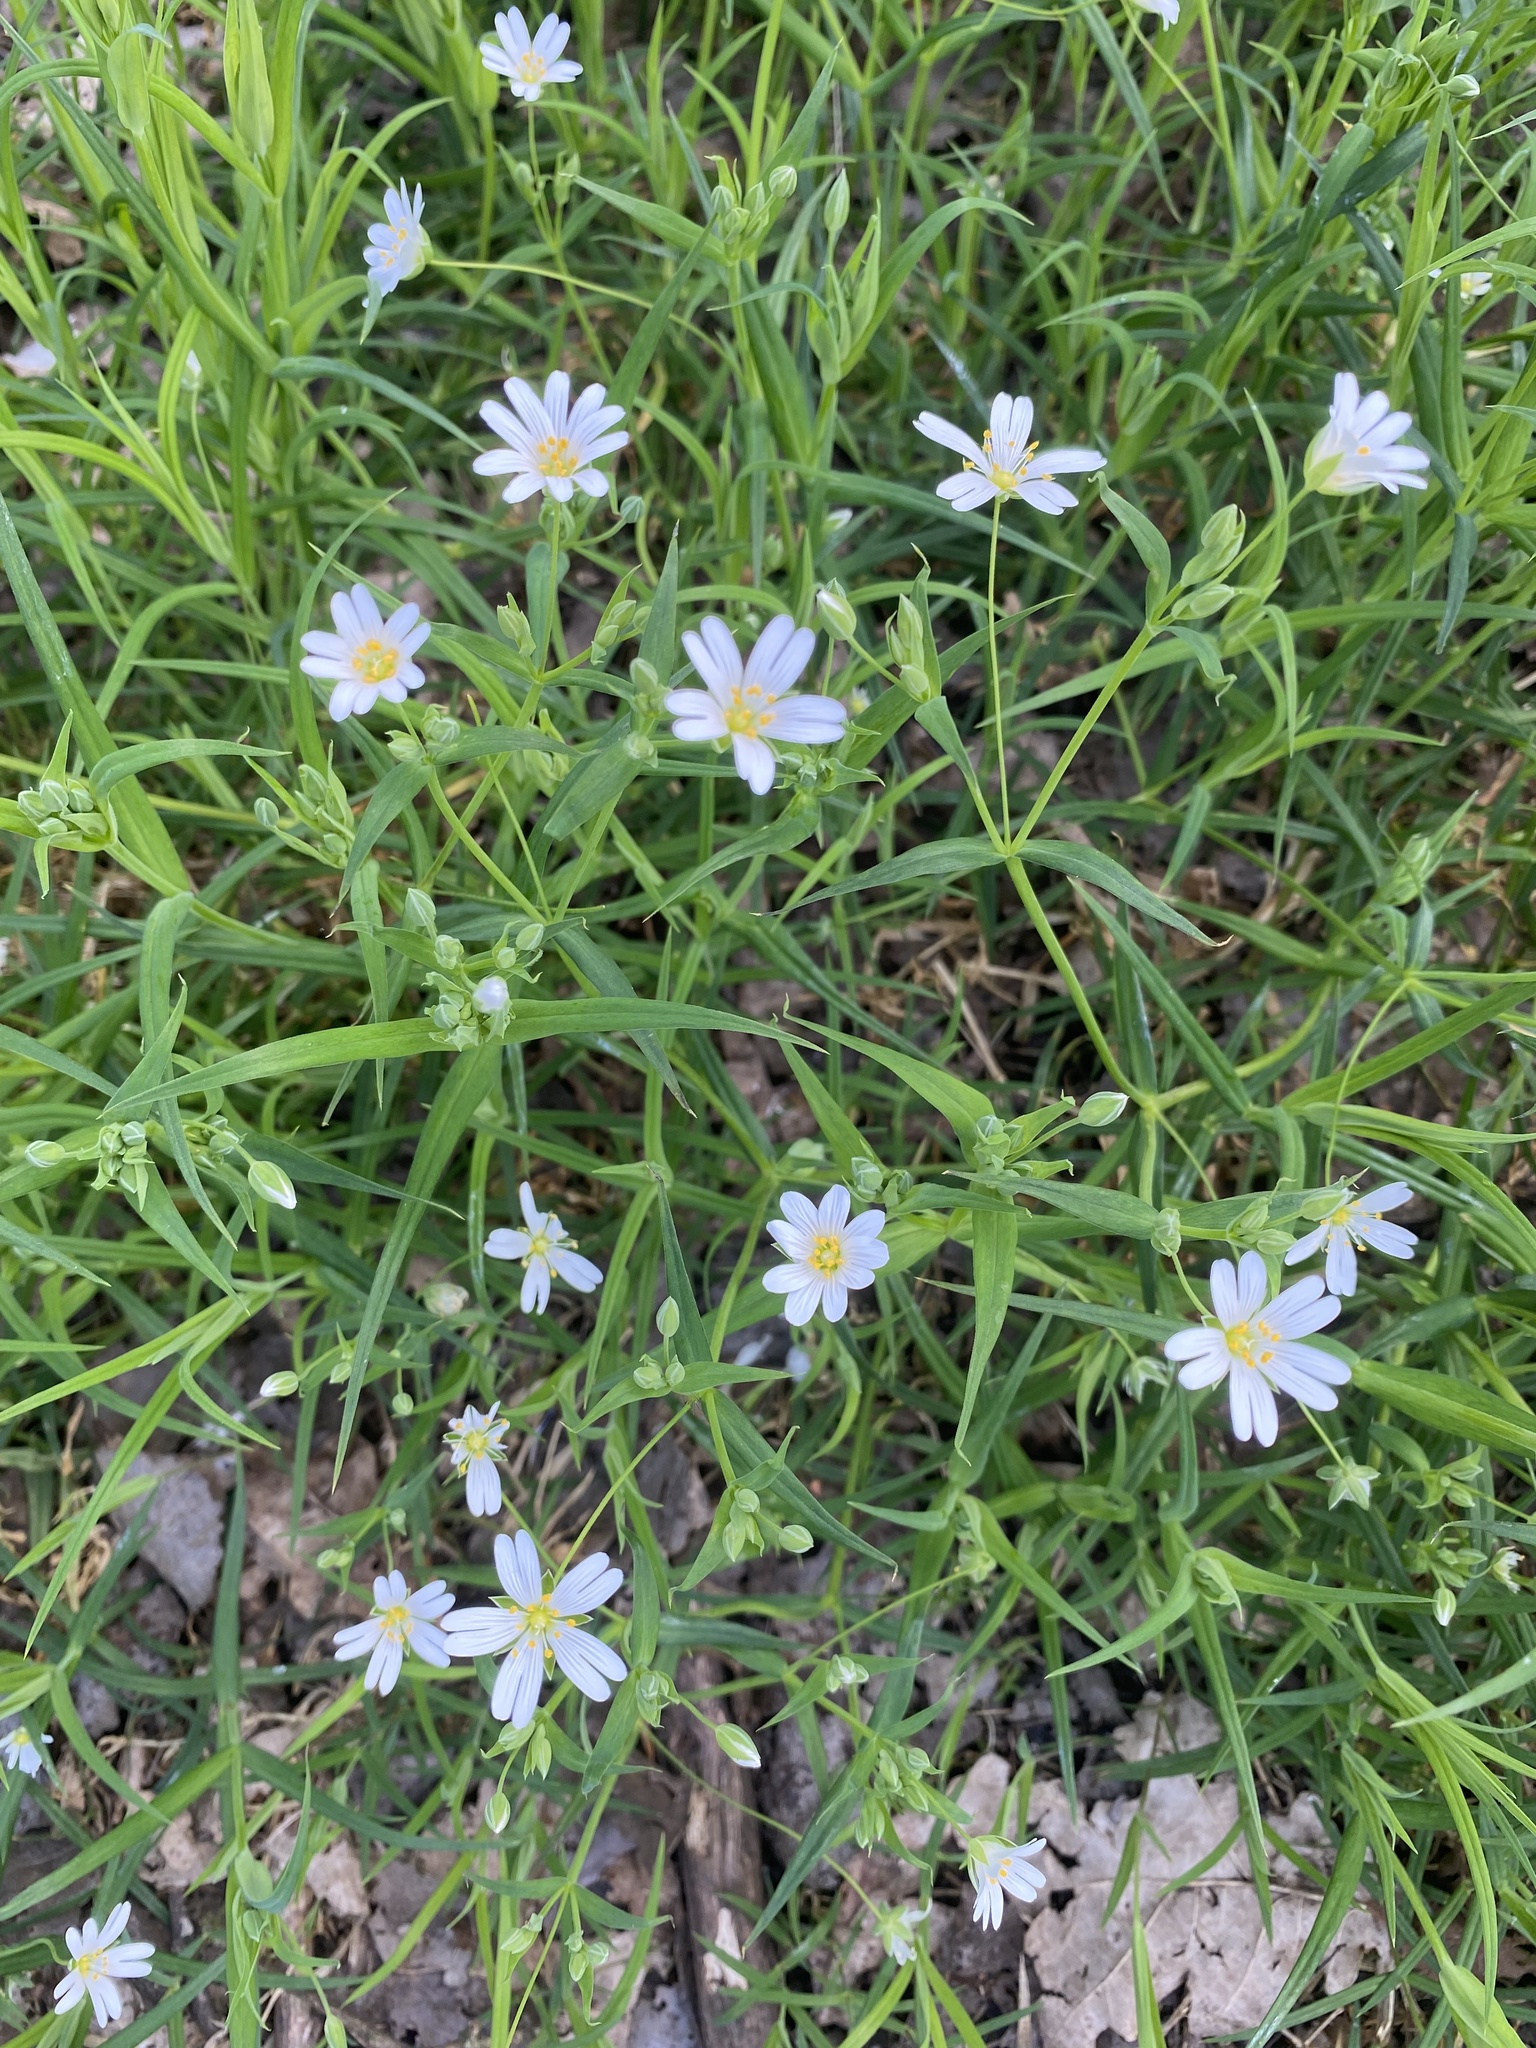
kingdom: Plantae
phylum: Tracheophyta
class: Magnoliopsida
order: Caryophyllales
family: Caryophyllaceae
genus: Rabelera
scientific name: Rabelera holostea
